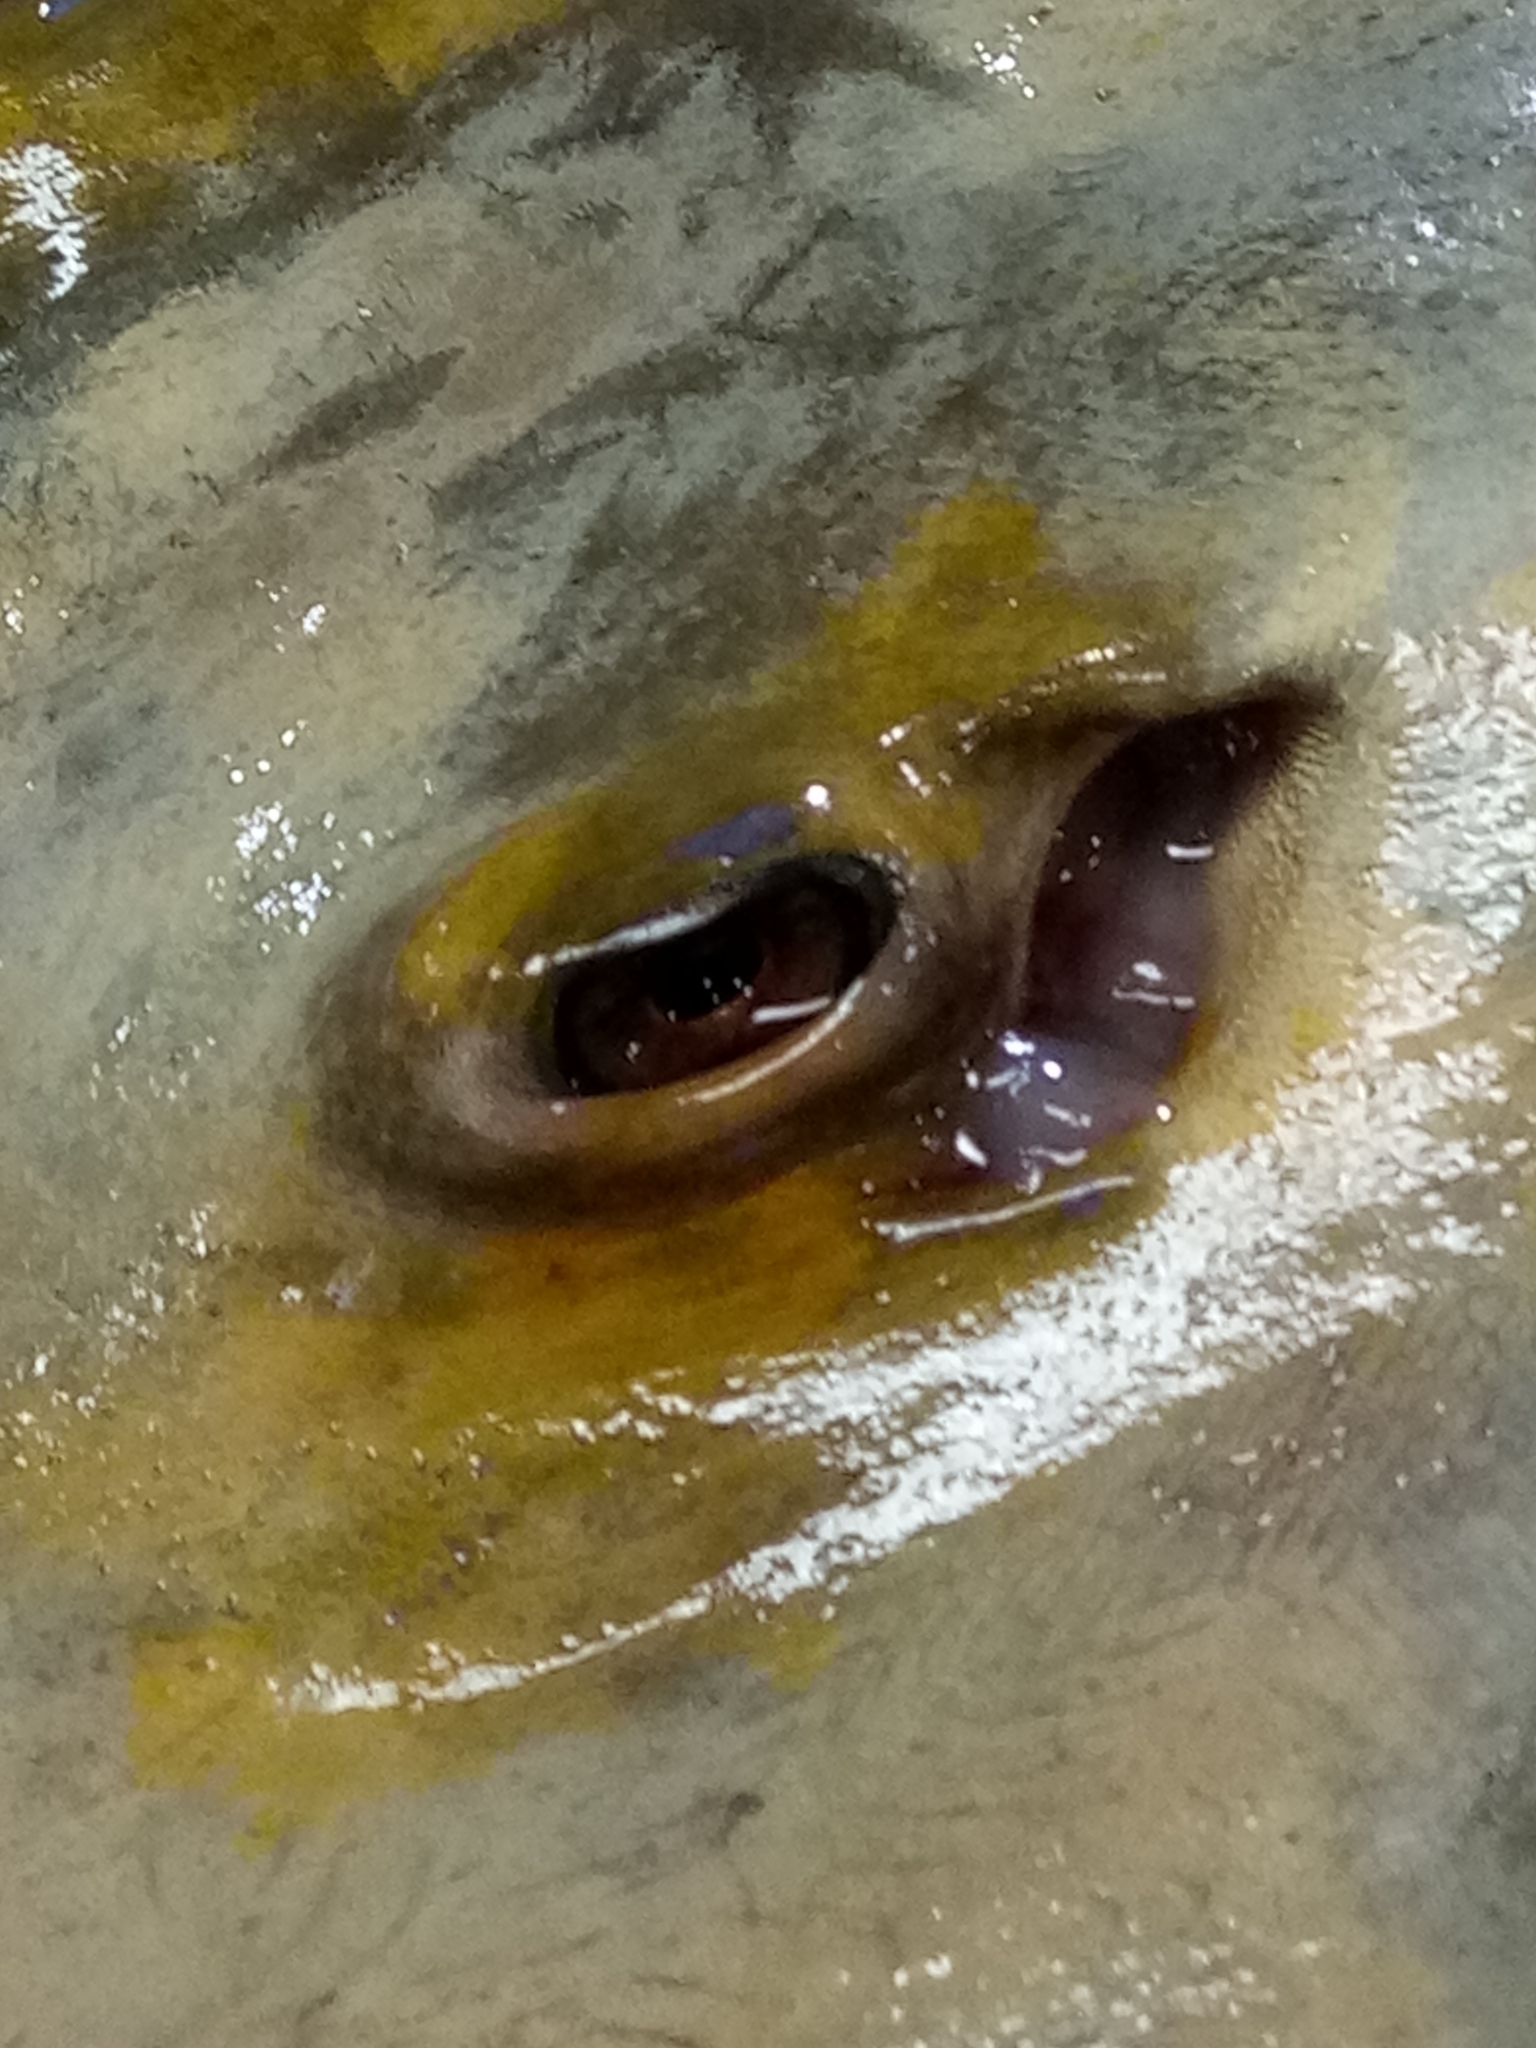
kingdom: Animalia
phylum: Chordata
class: Elasmobranchii
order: Myliobatiformes
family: Dasyatidae
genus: Dasyatis
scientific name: Dasyatis pastinaca
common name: Common stingray
